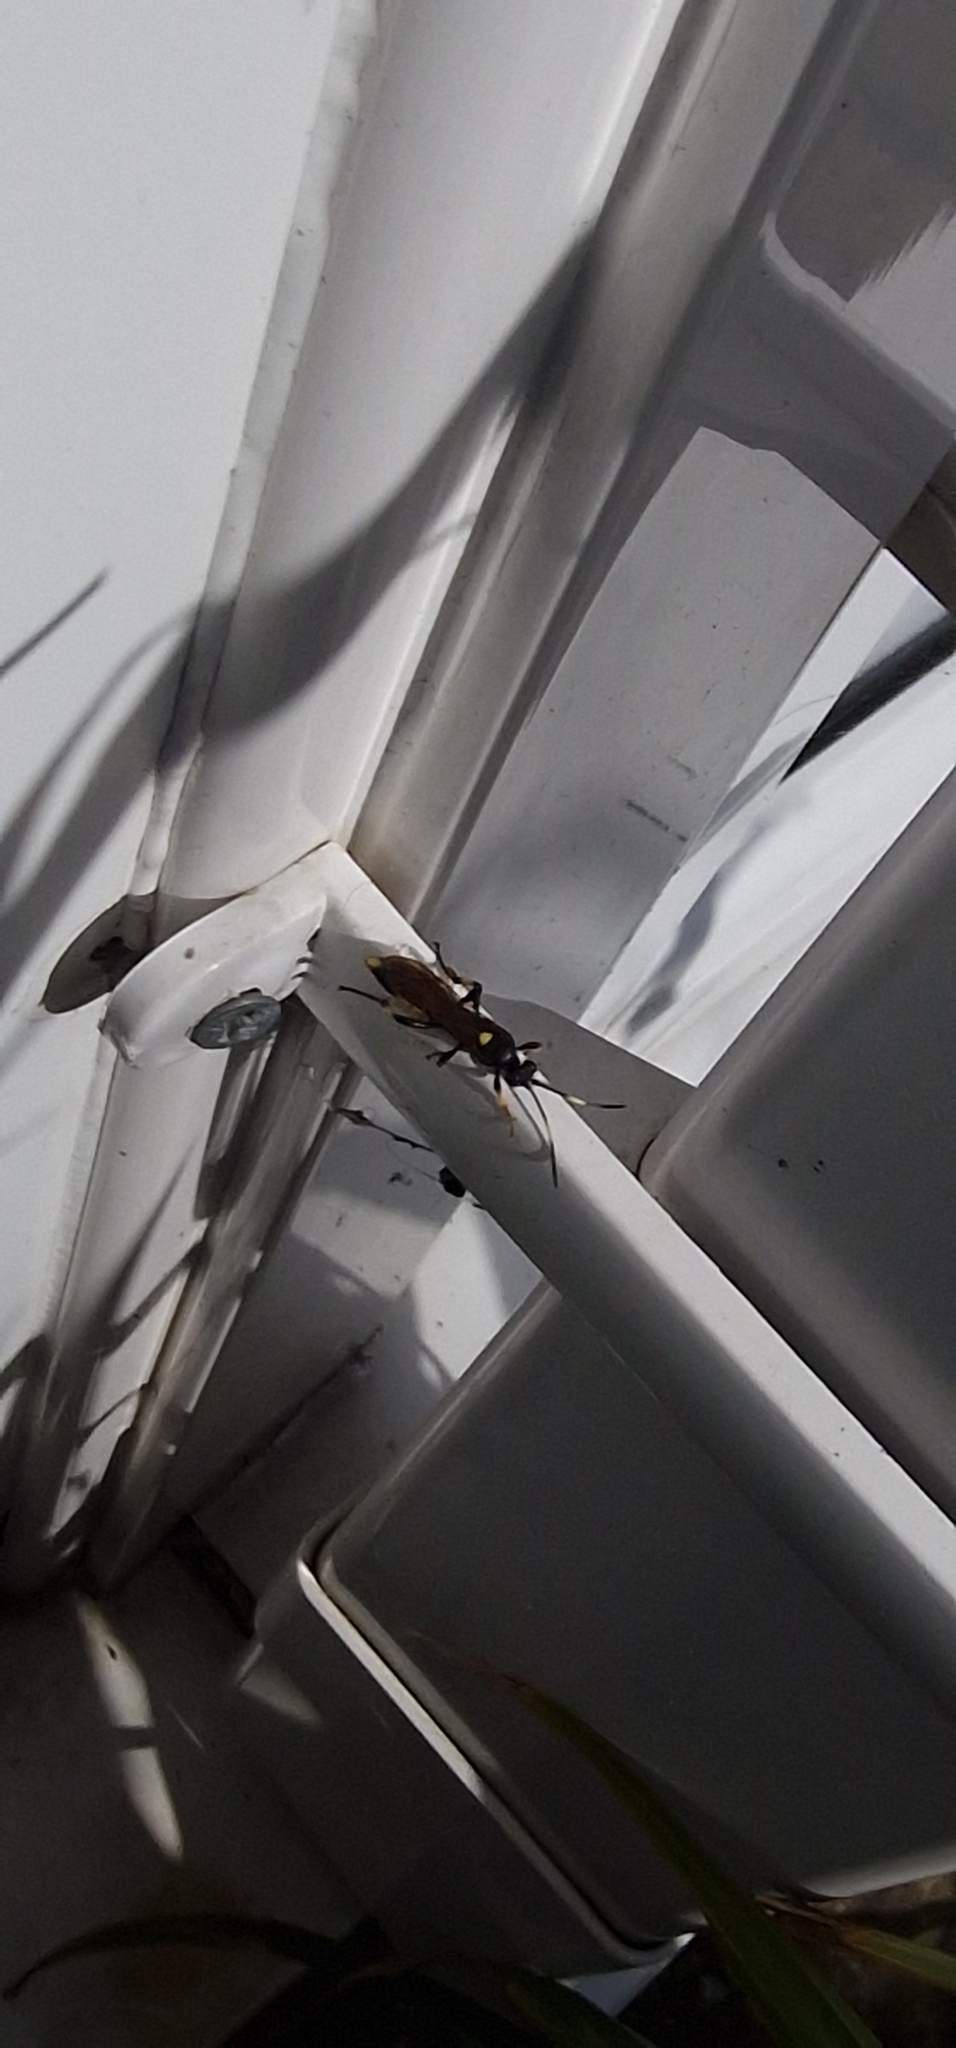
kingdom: Animalia
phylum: Arthropoda
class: Insecta
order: Hymenoptera
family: Ichneumonidae
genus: Ichneumon
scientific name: Ichneumon stramentor
